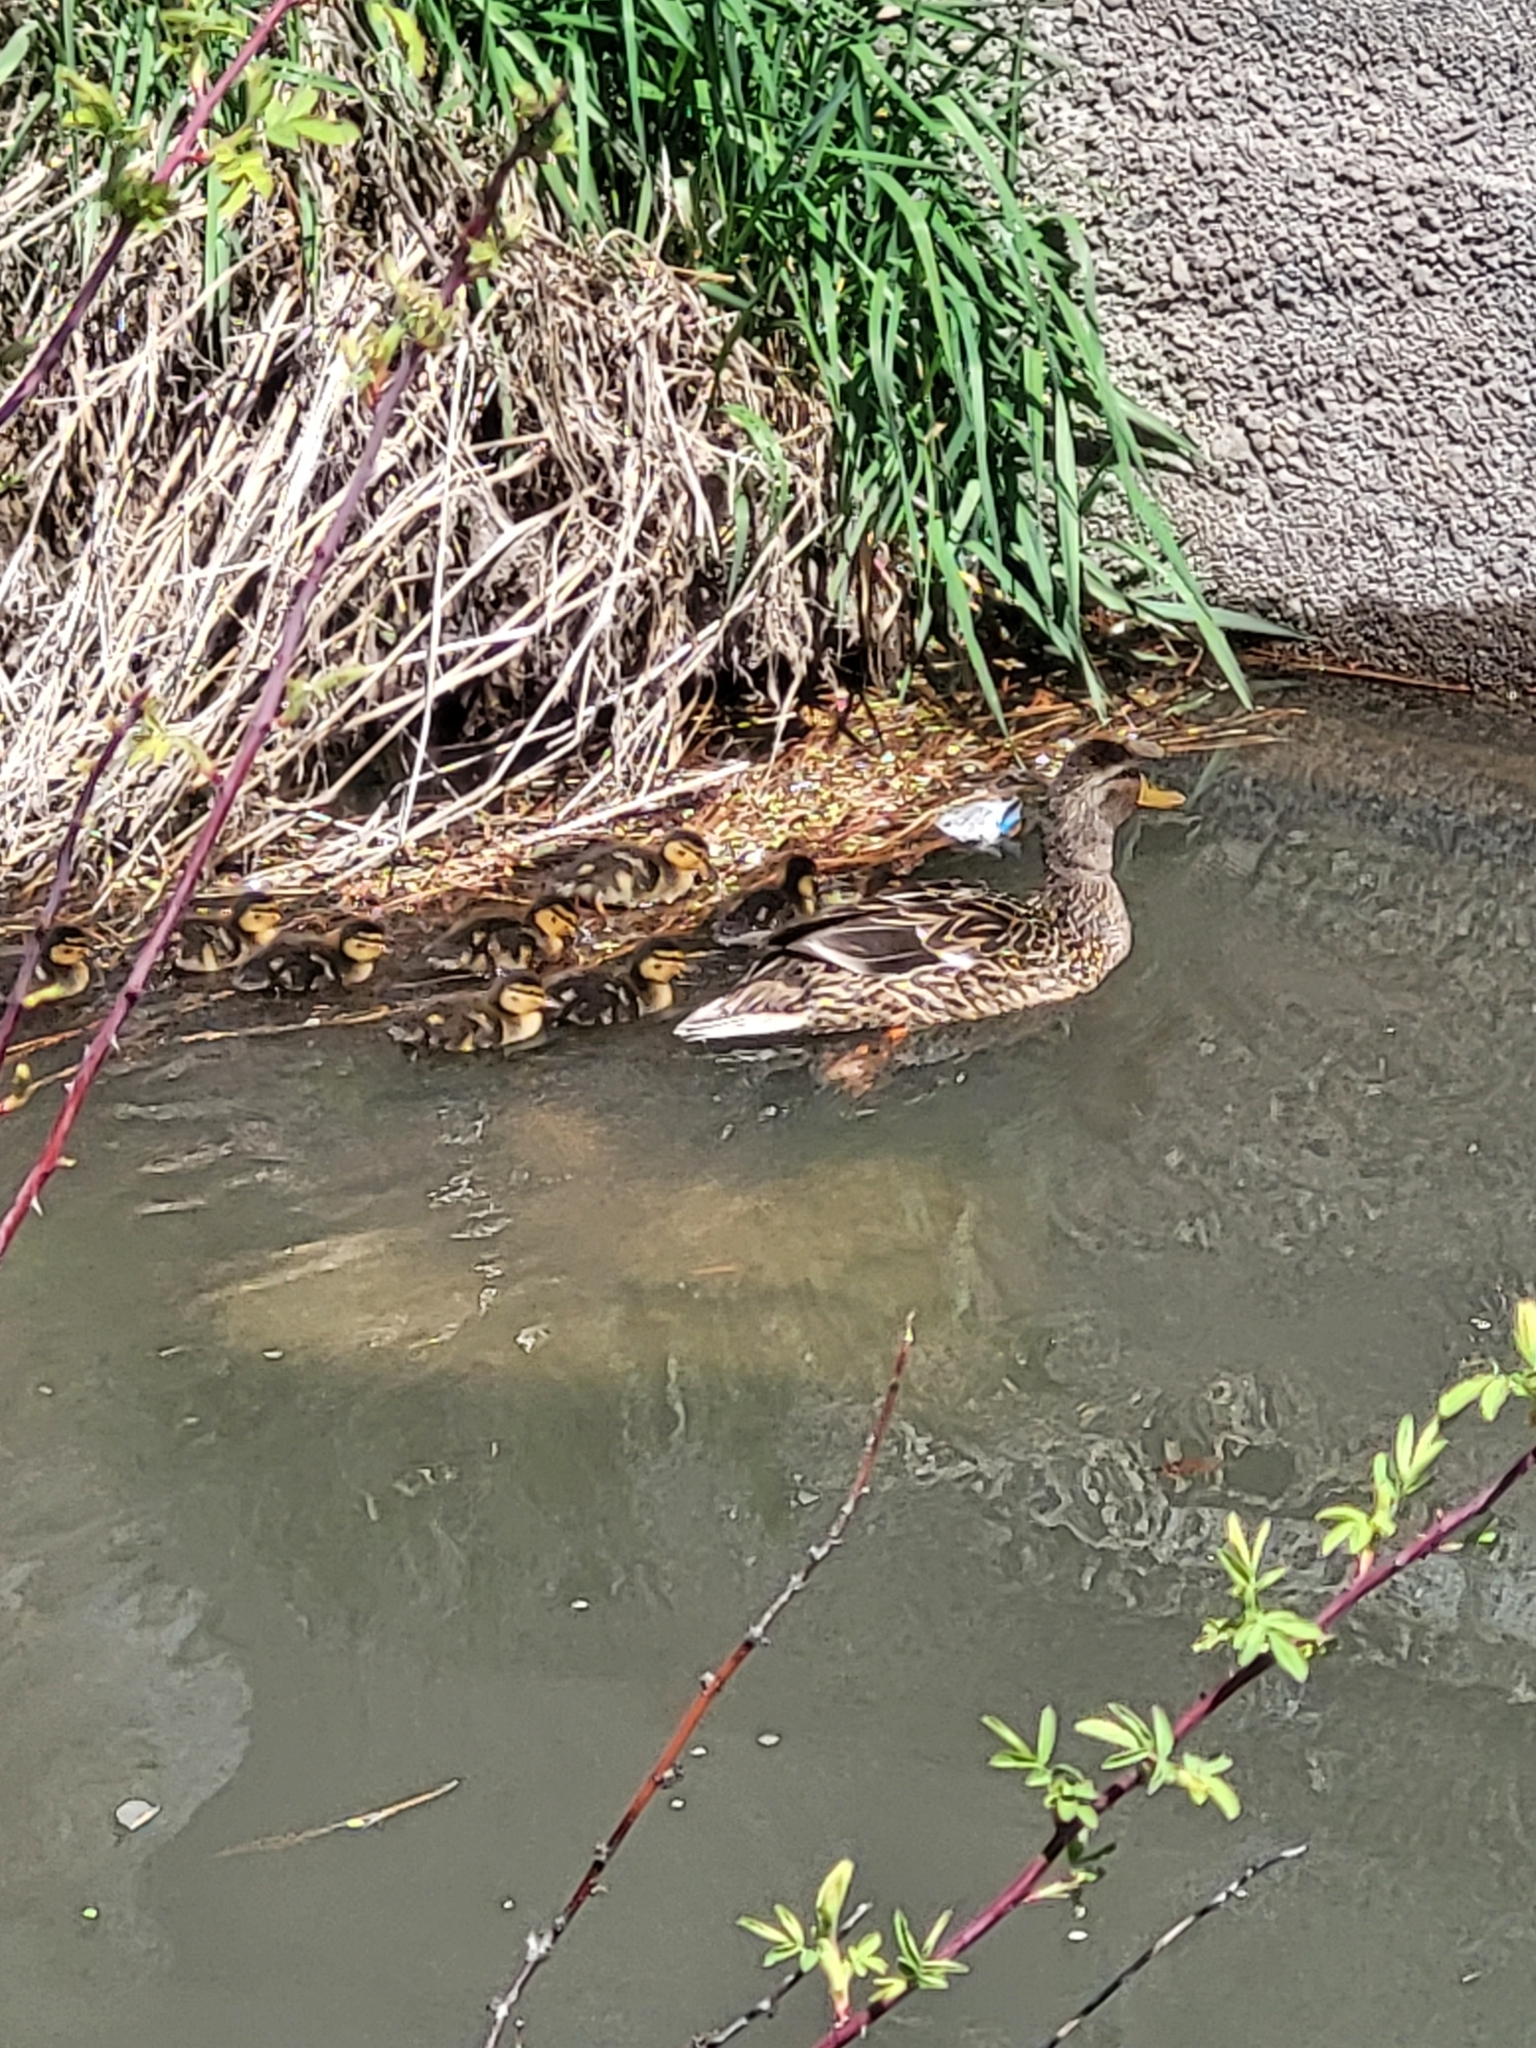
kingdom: Animalia
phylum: Chordata
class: Aves
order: Anseriformes
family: Anatidae
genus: Anas
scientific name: Anas platyrhynchos
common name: Mallard
